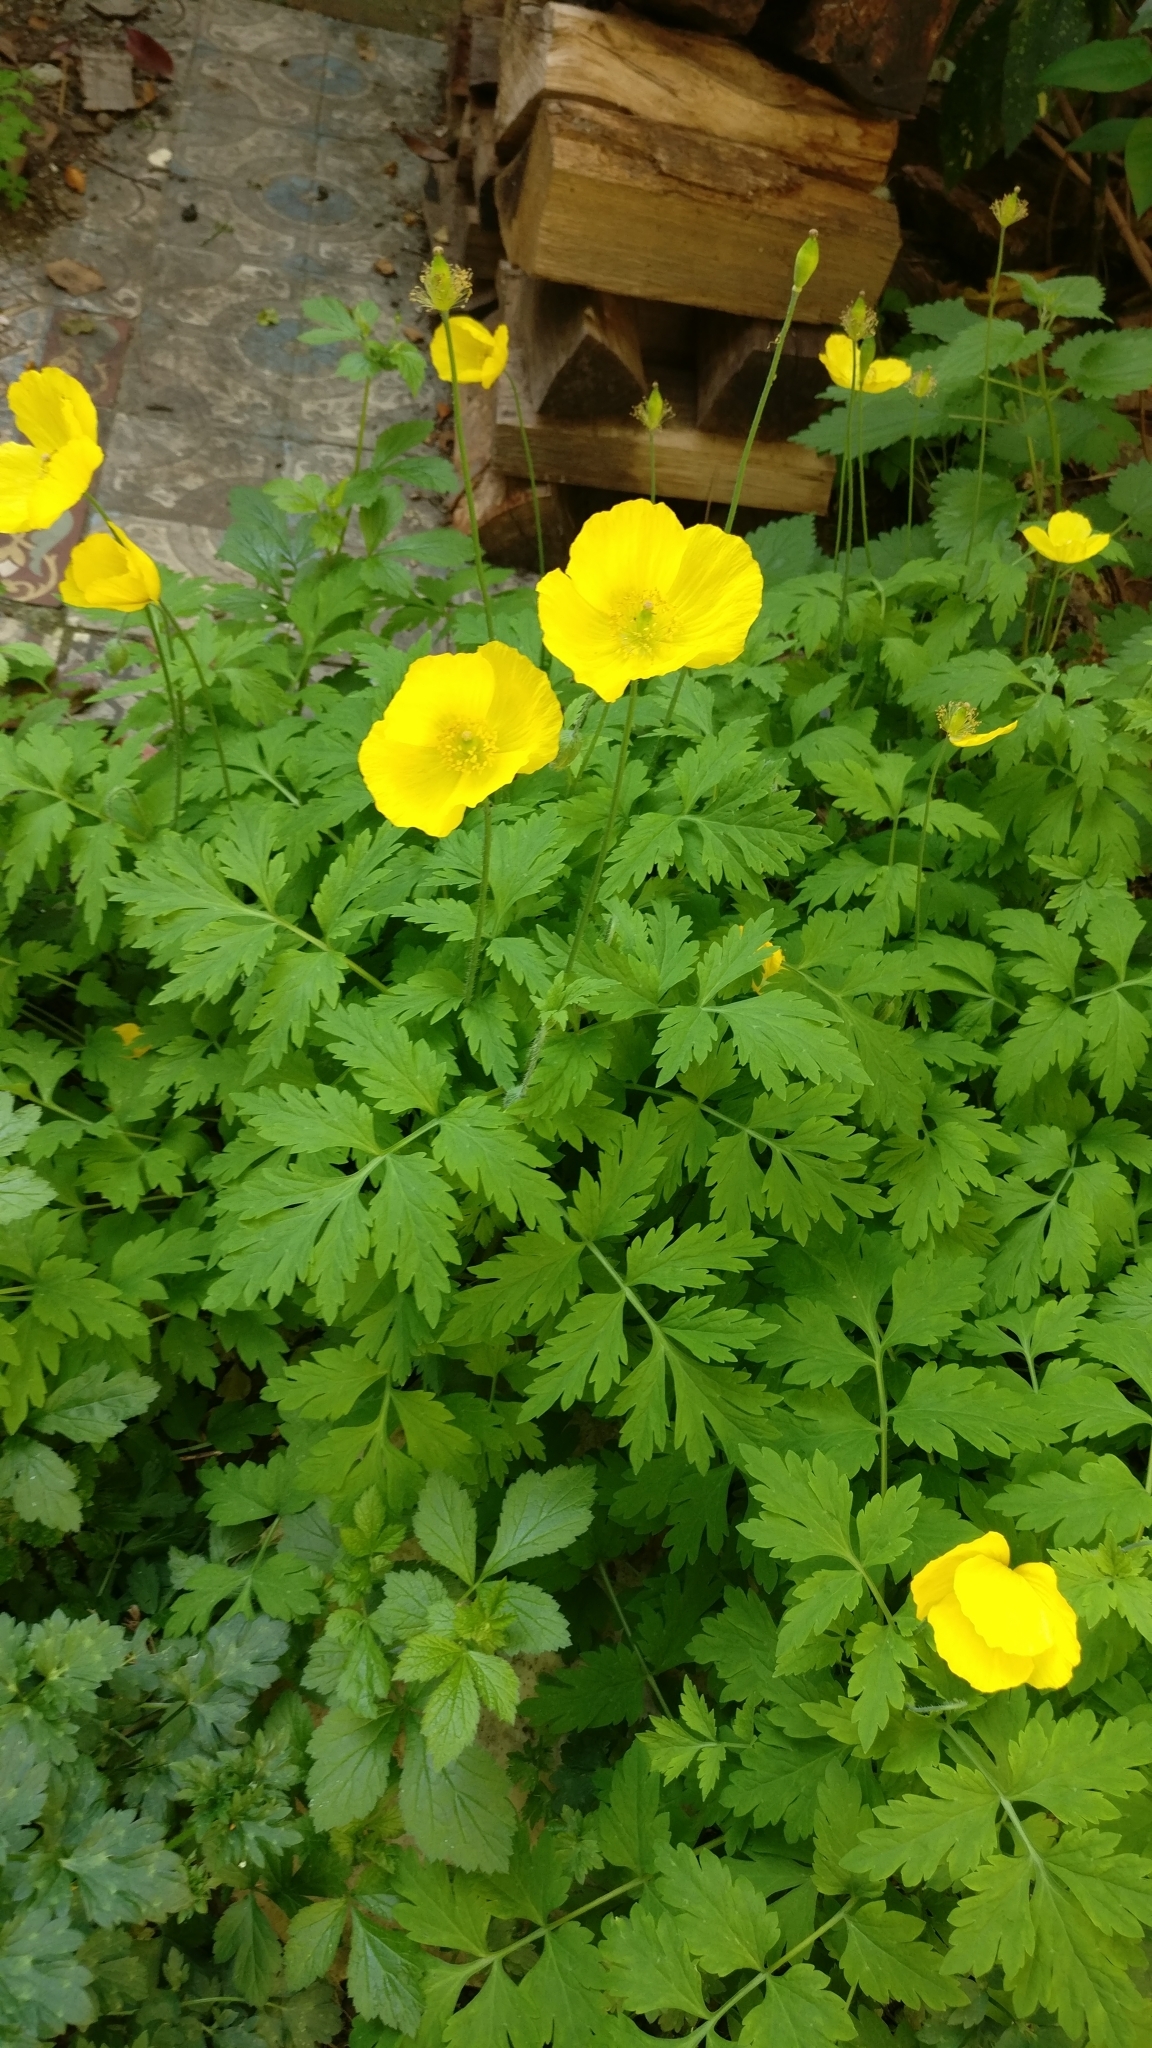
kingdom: Plantae
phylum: Tracheophyta
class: Magnoliopsida
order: Ranunculales
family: Papaveraceae
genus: Papaver
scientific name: Papaver cambricum
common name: Poppy
